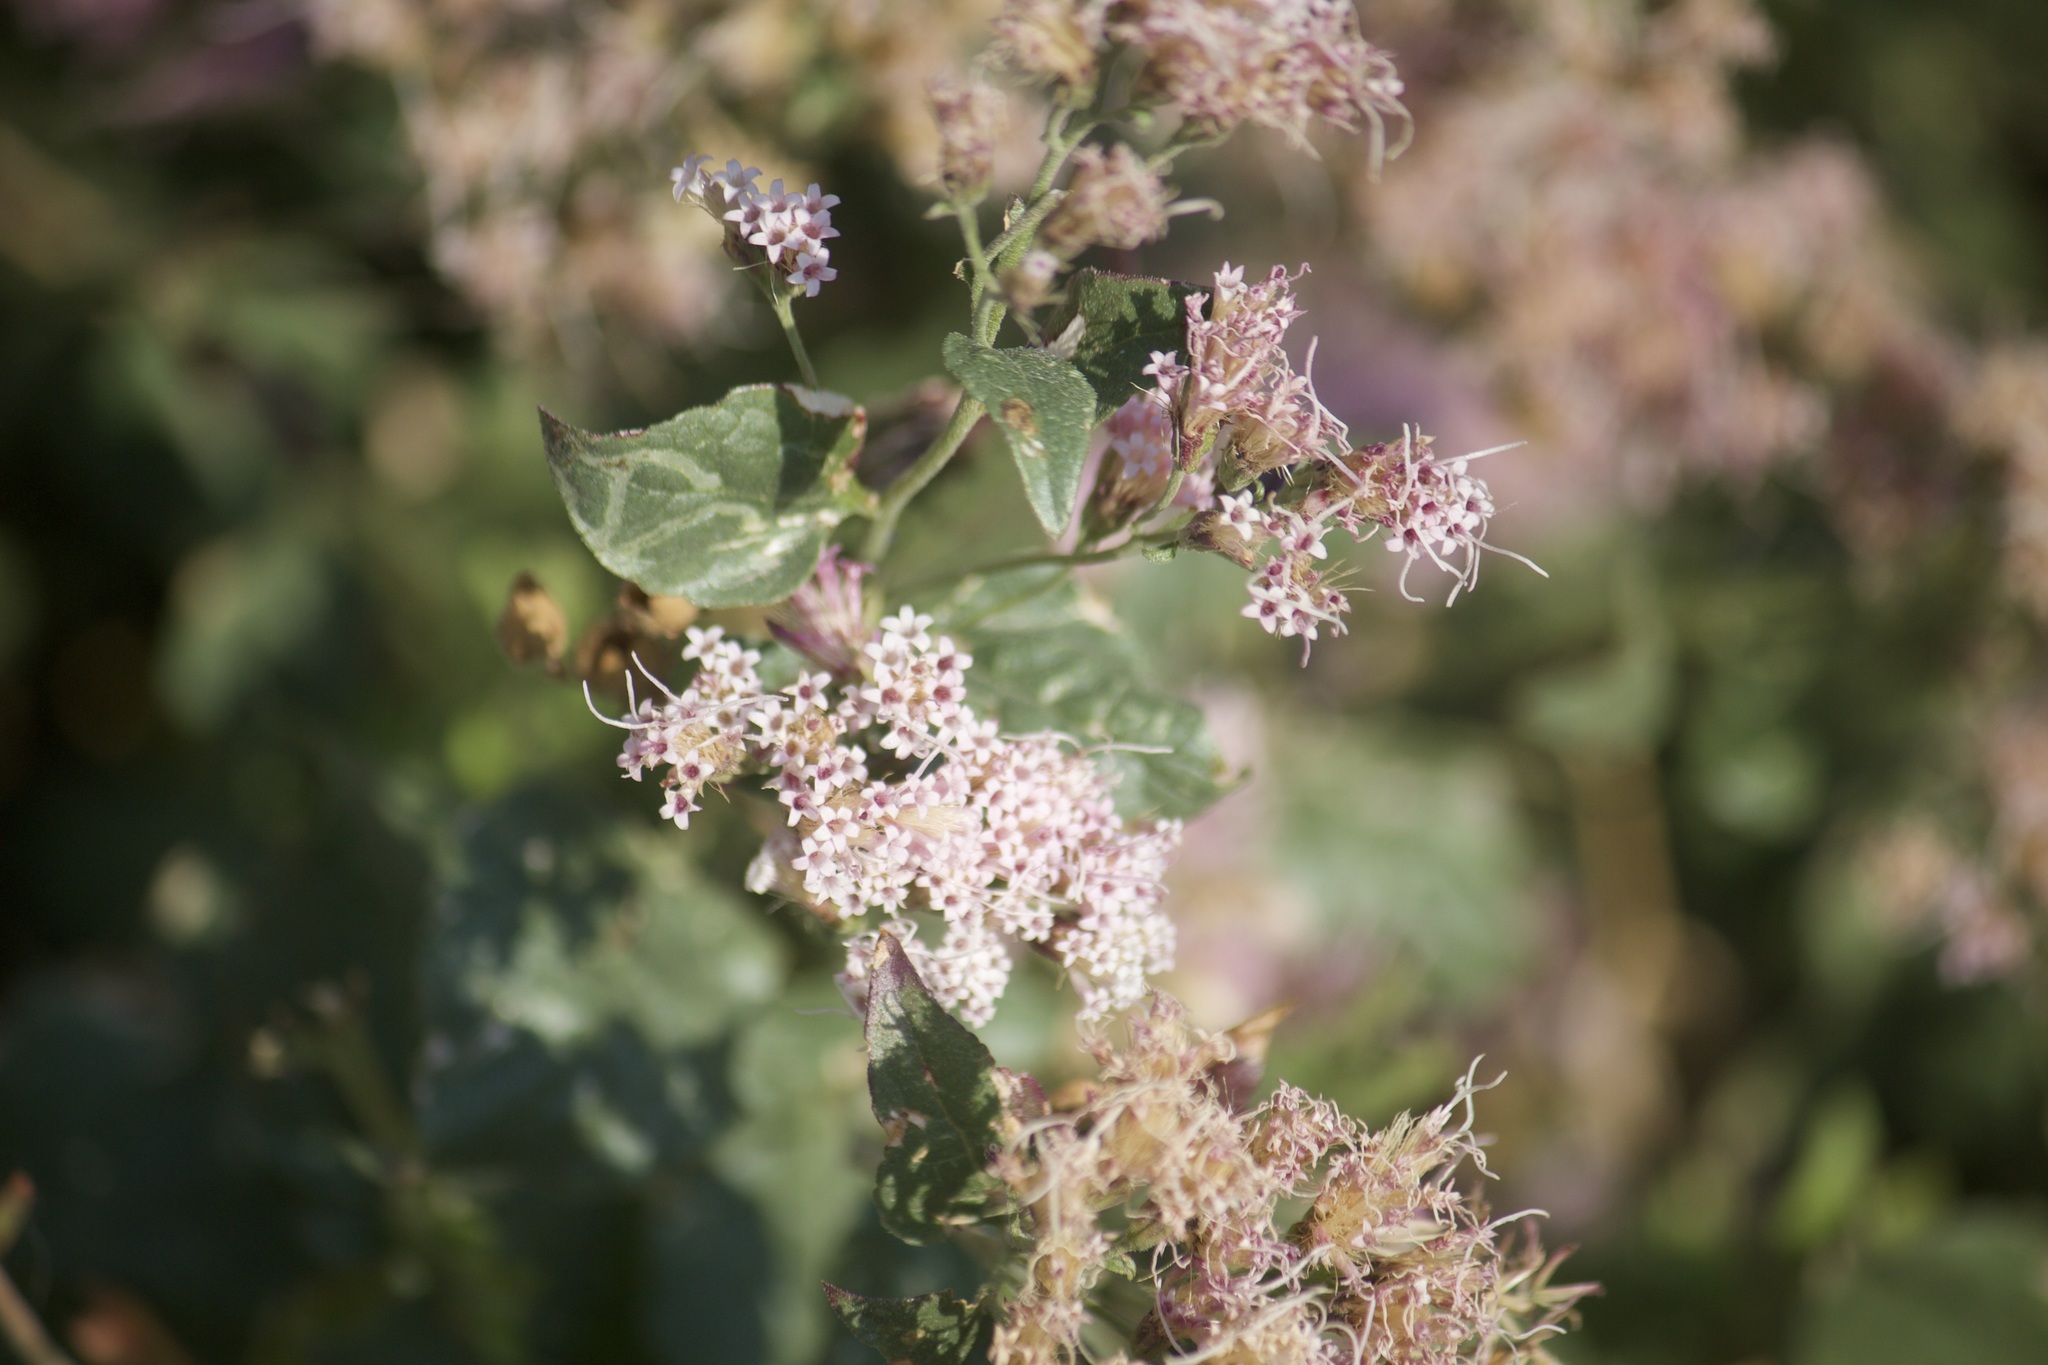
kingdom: Plantae
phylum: Tracheophyta
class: Magnoliopsida
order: Asterales
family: Asteraceae
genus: Ageratina
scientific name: Ageratina occidentalis
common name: Western snakeroot
